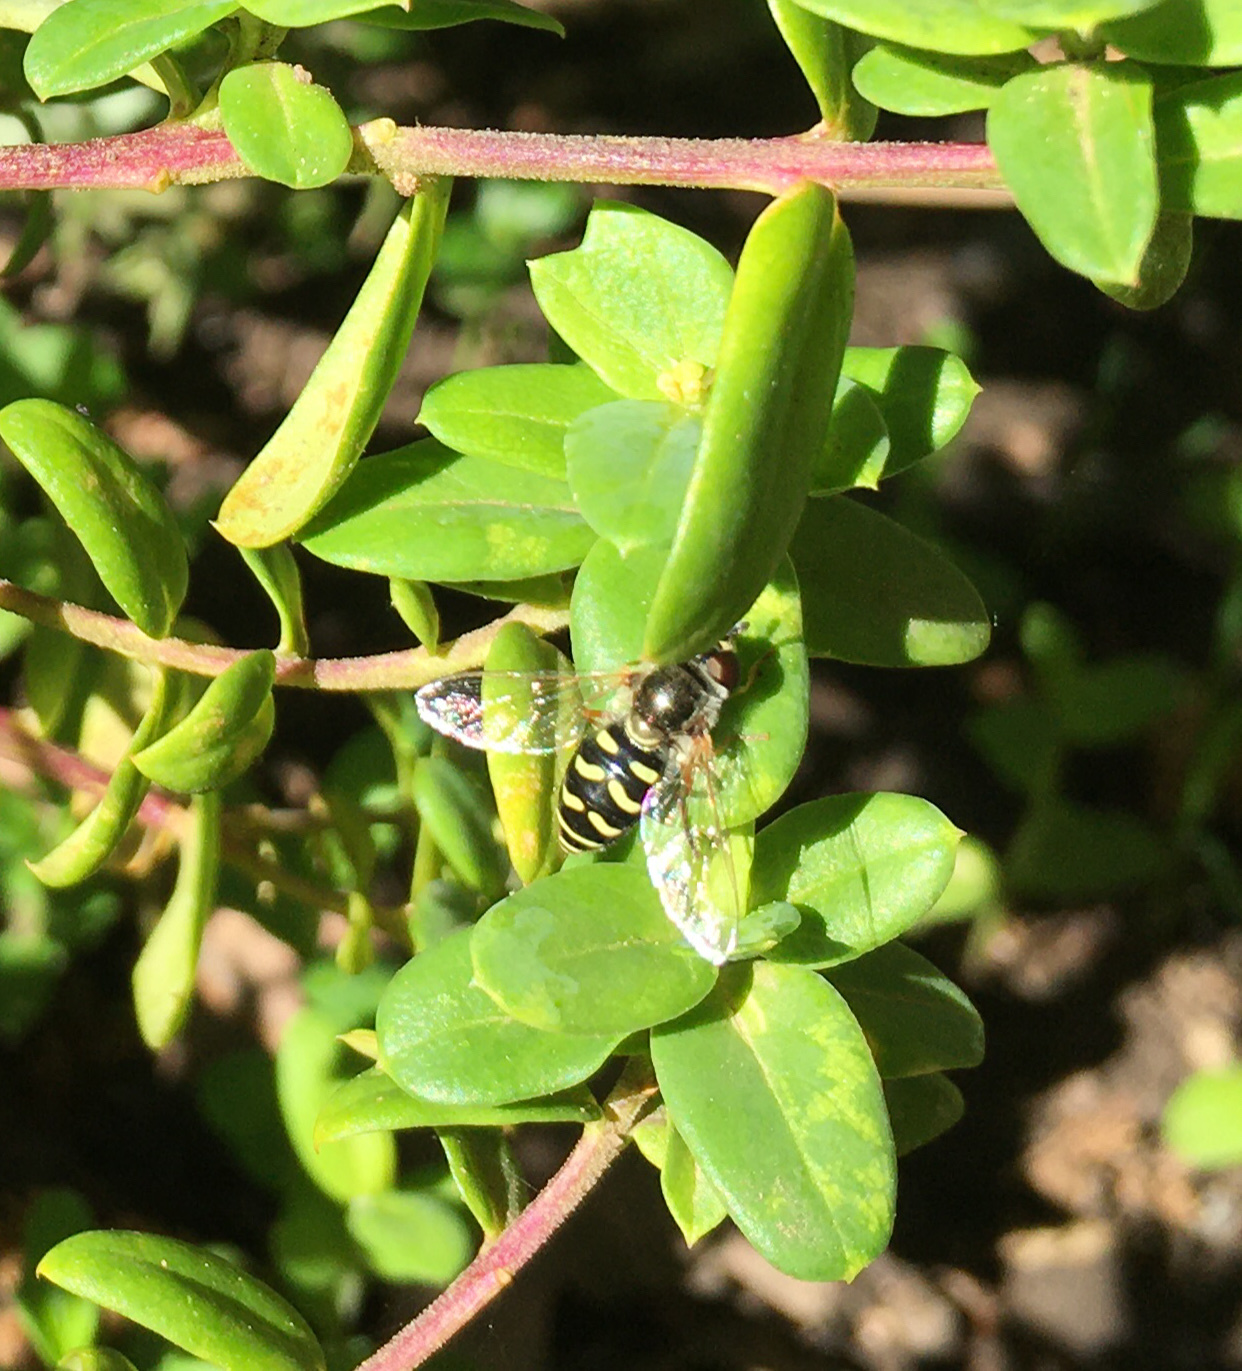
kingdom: Animalia
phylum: Arthropoda
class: Insecta
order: Diptera
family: Syrphidae
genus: Eupeodes
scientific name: Eupeodes volucris
